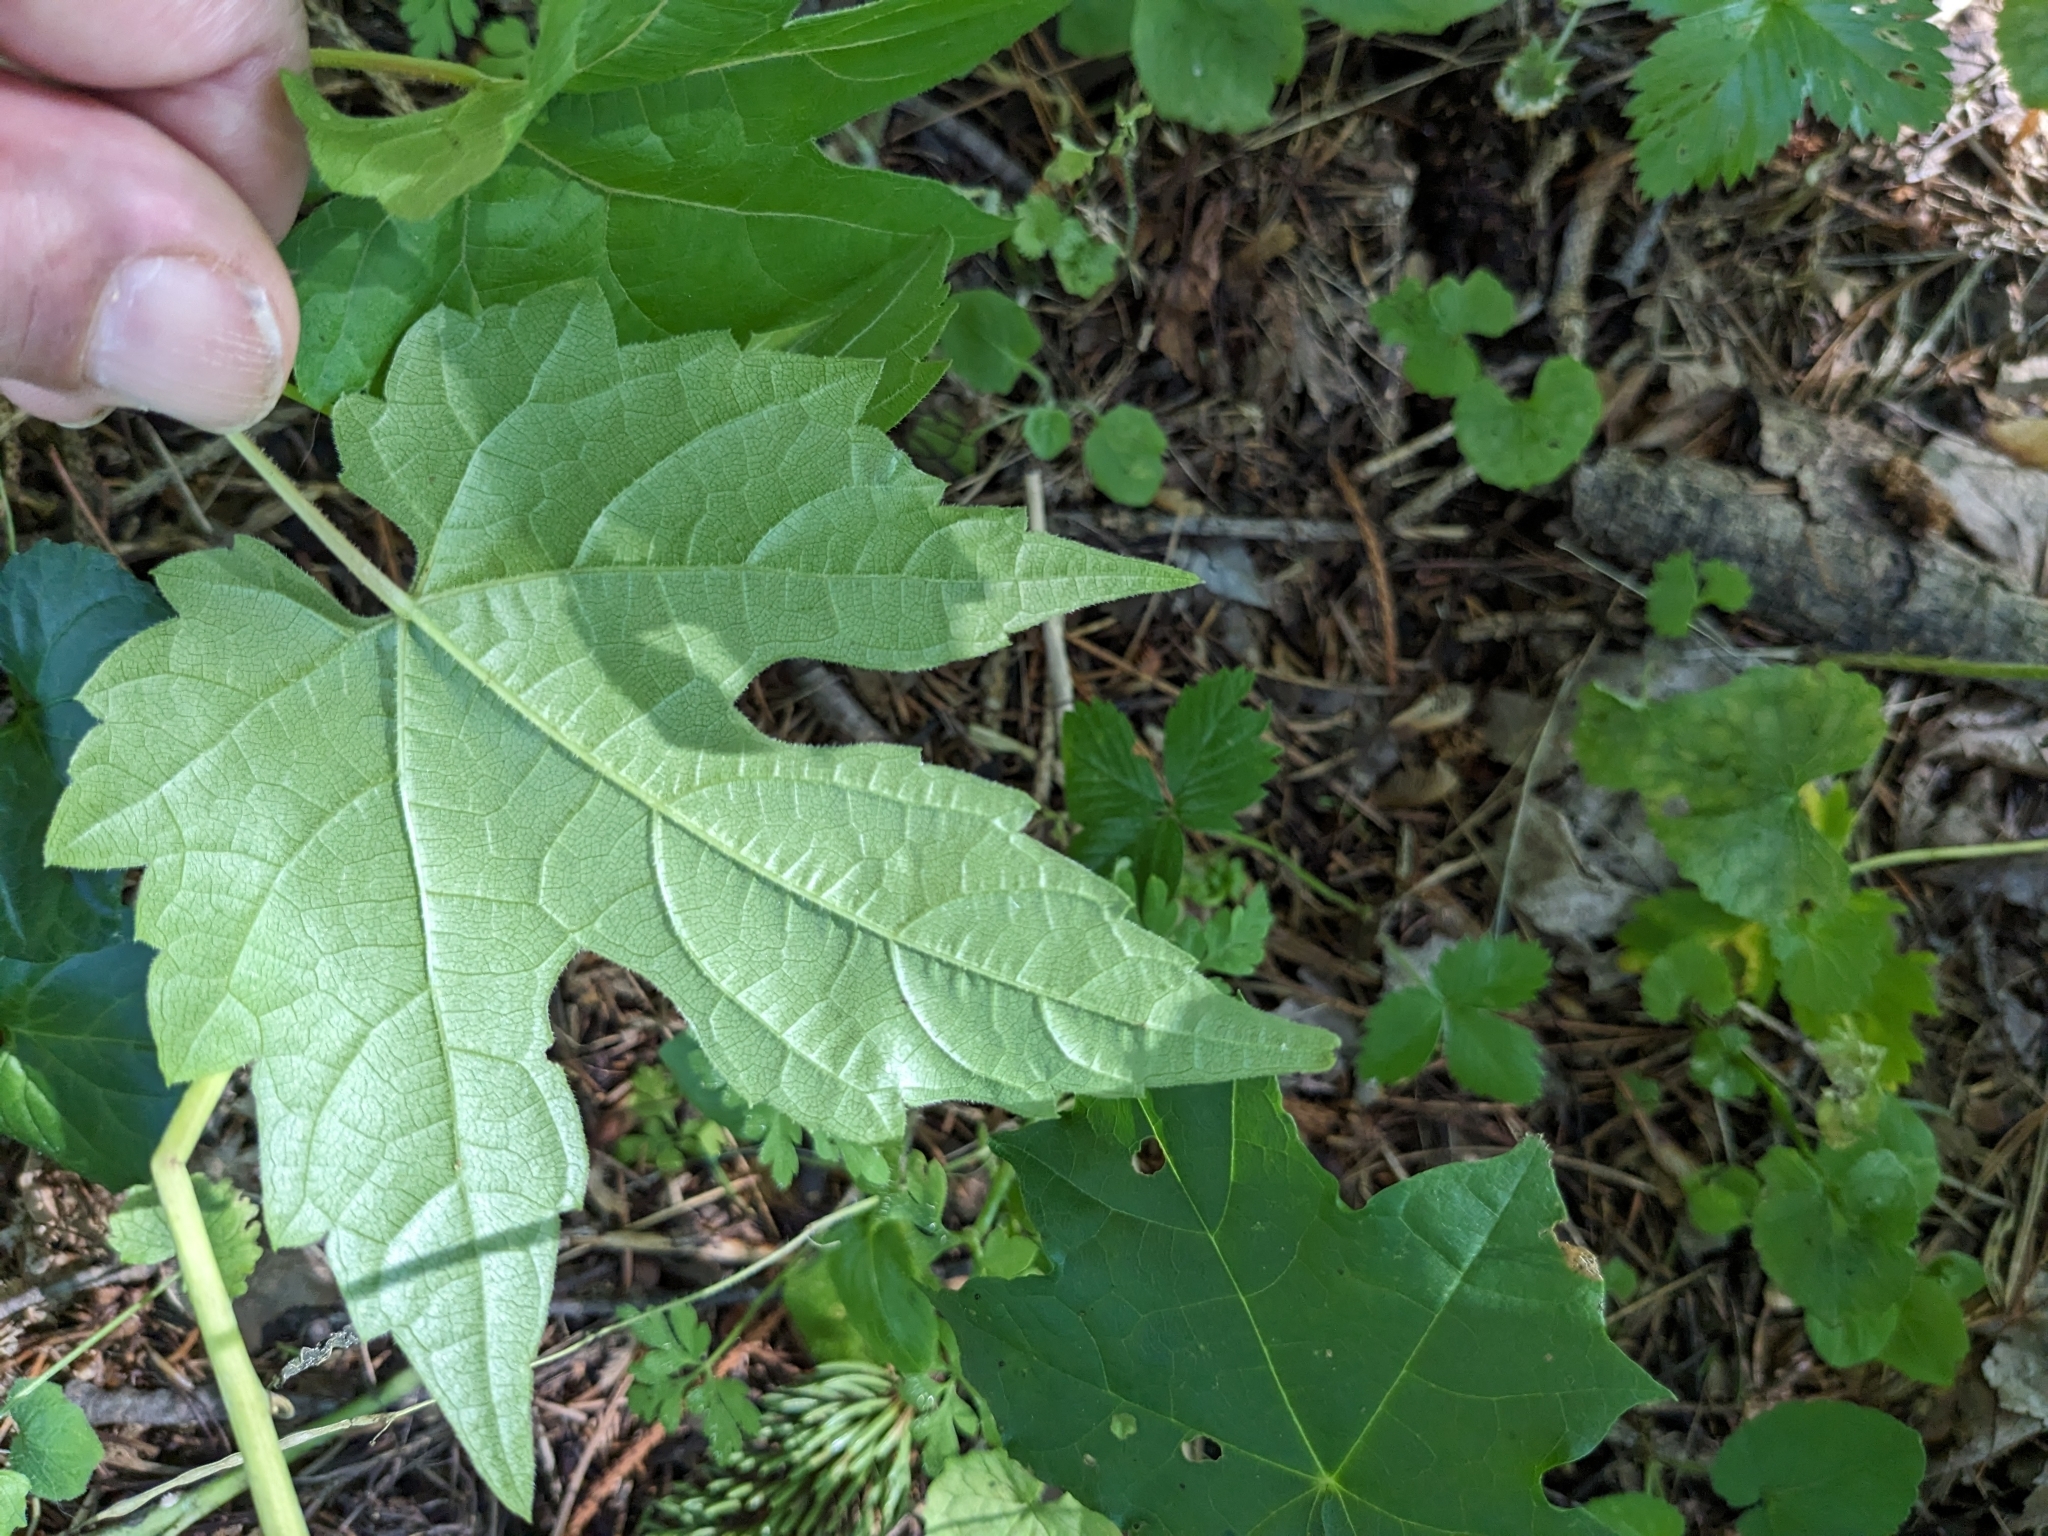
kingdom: Plantae
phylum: Tracheophyta
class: Magnoliopsida
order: Vitales
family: Vitaceae
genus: Vitis
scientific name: Vitis riparia
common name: Frost grape
